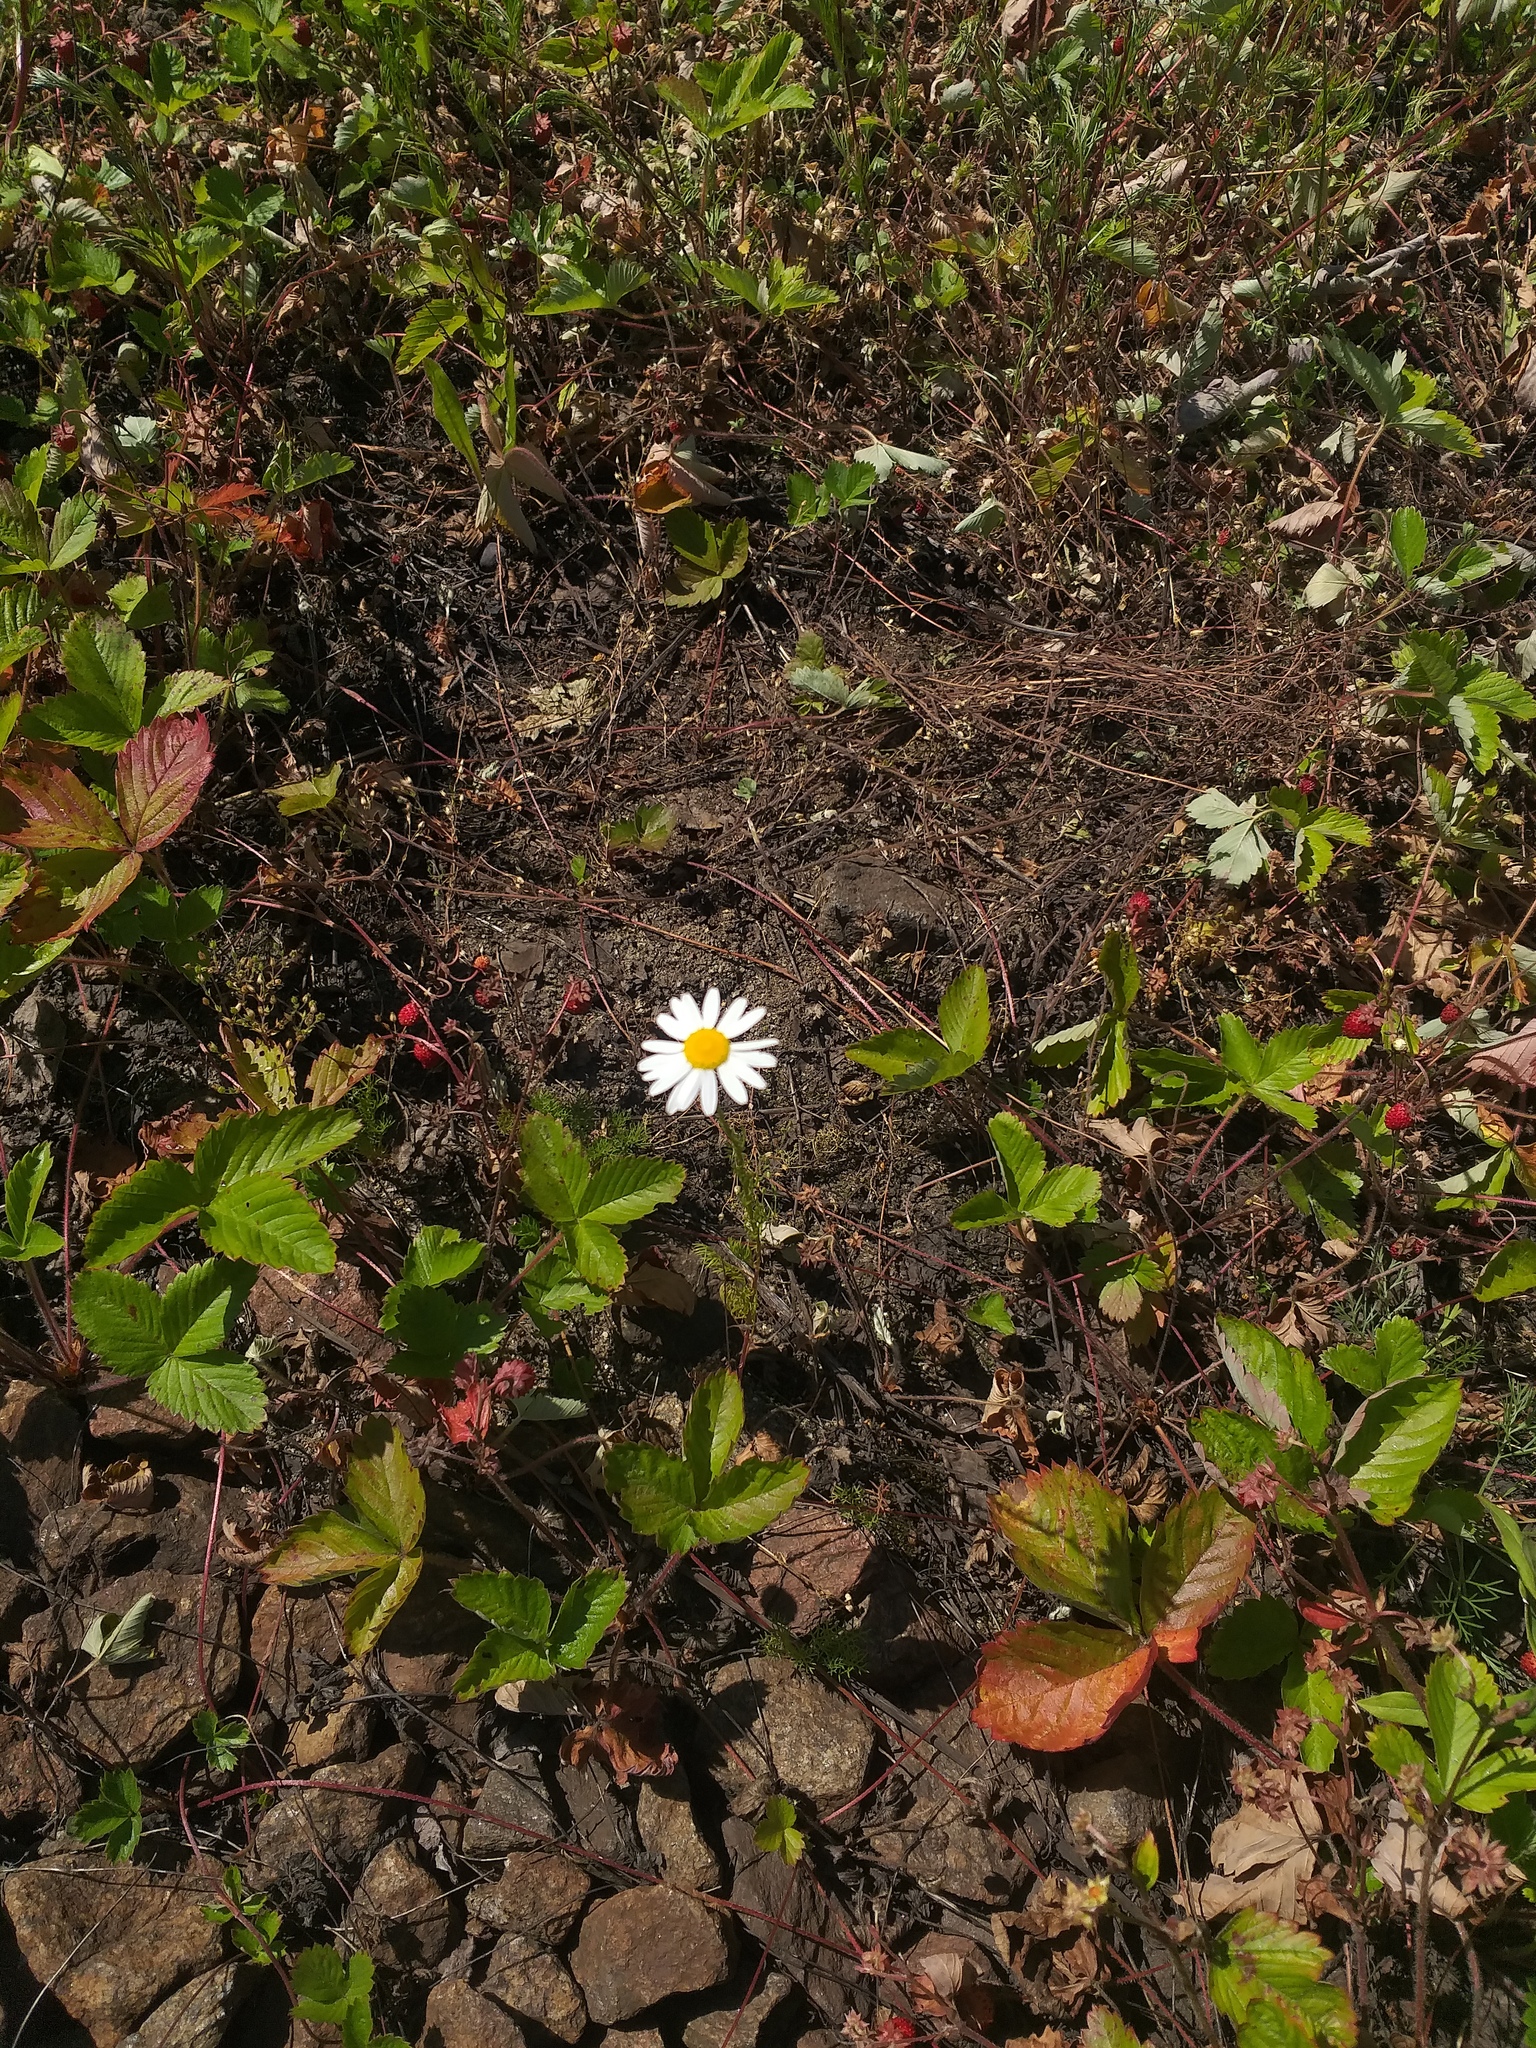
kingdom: Plantae
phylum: Tracheophyta
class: Magnoliopsida
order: Asterales
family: Asteraceae
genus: Tripleurospermum
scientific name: Tripleurospermum inodorum
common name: Scentless mayweed
